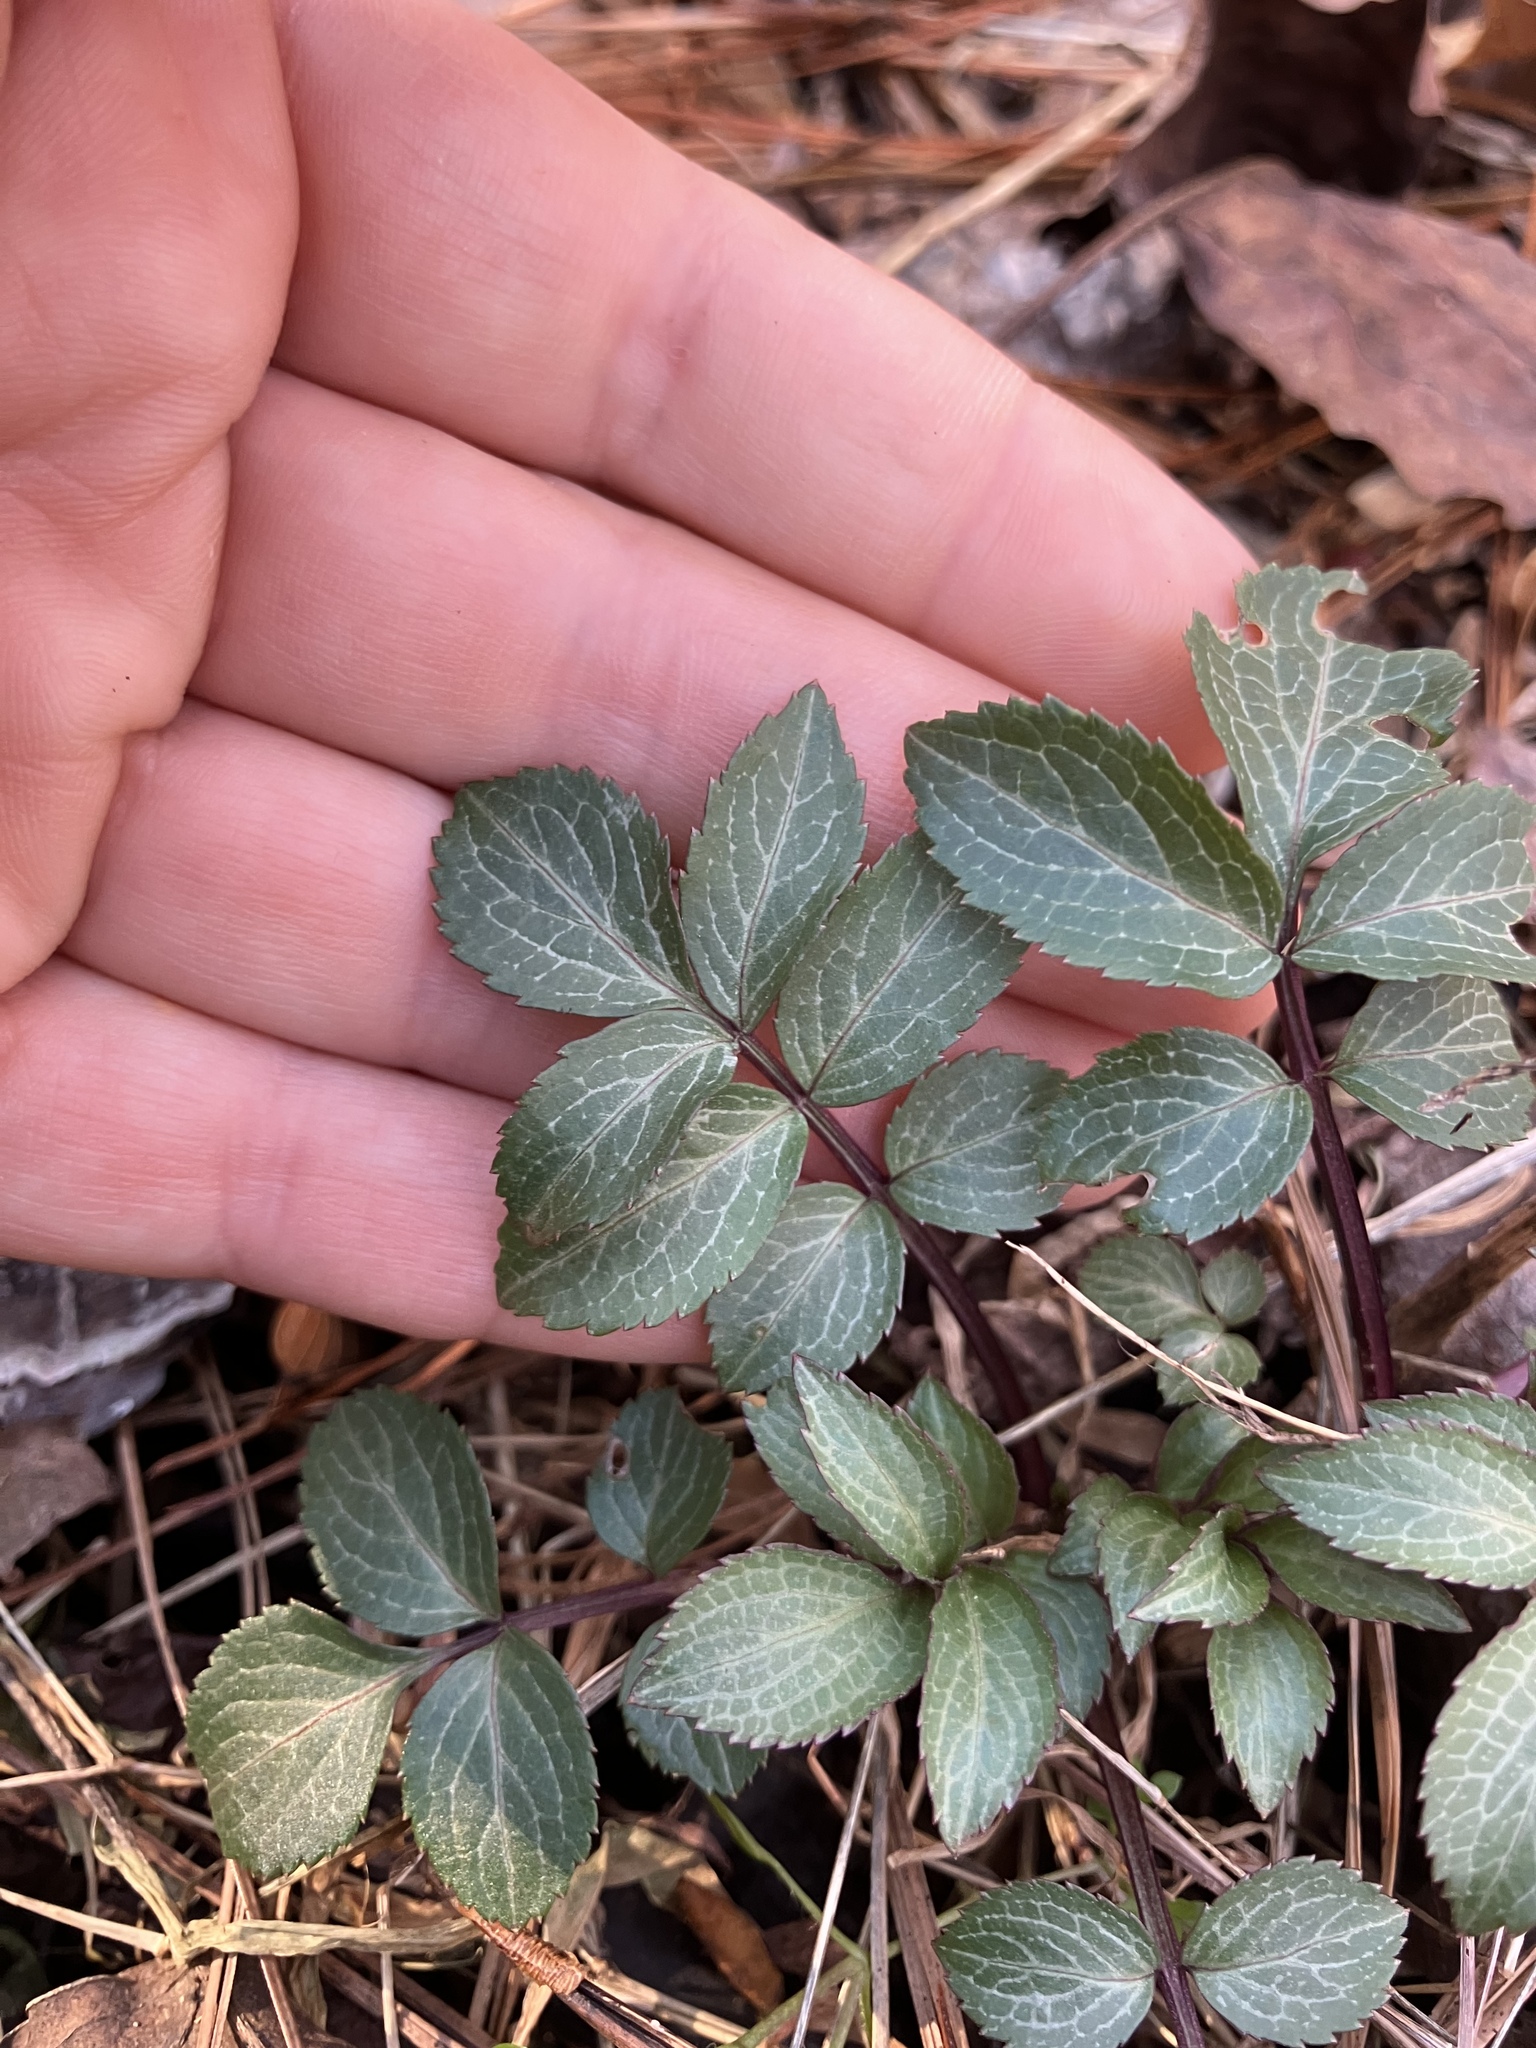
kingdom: Plantae
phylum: Tracheophyta
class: Magnoliopsida
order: Dipsacales
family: Viburnaceae
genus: Sambucus
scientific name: Sambucus canadensis
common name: American elder
